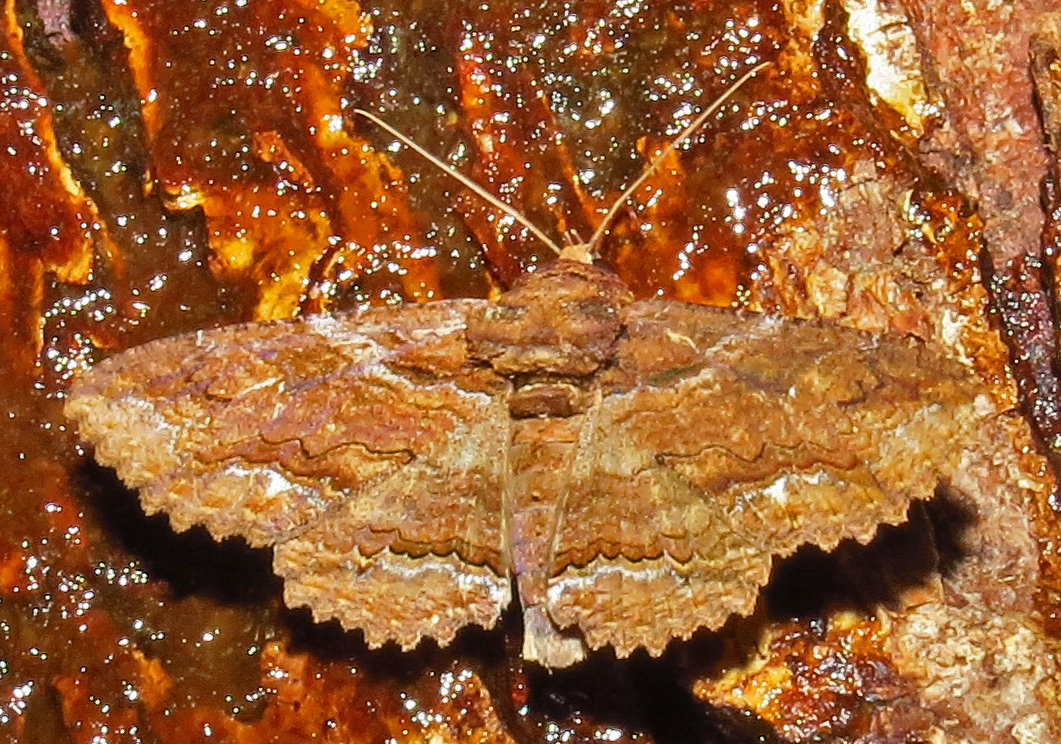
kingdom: Animalia
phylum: Arthropoda
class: Insecta
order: Lepidoptera
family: Erebidae
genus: Zale
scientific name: Zale lunata
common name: Lunate zale moth
